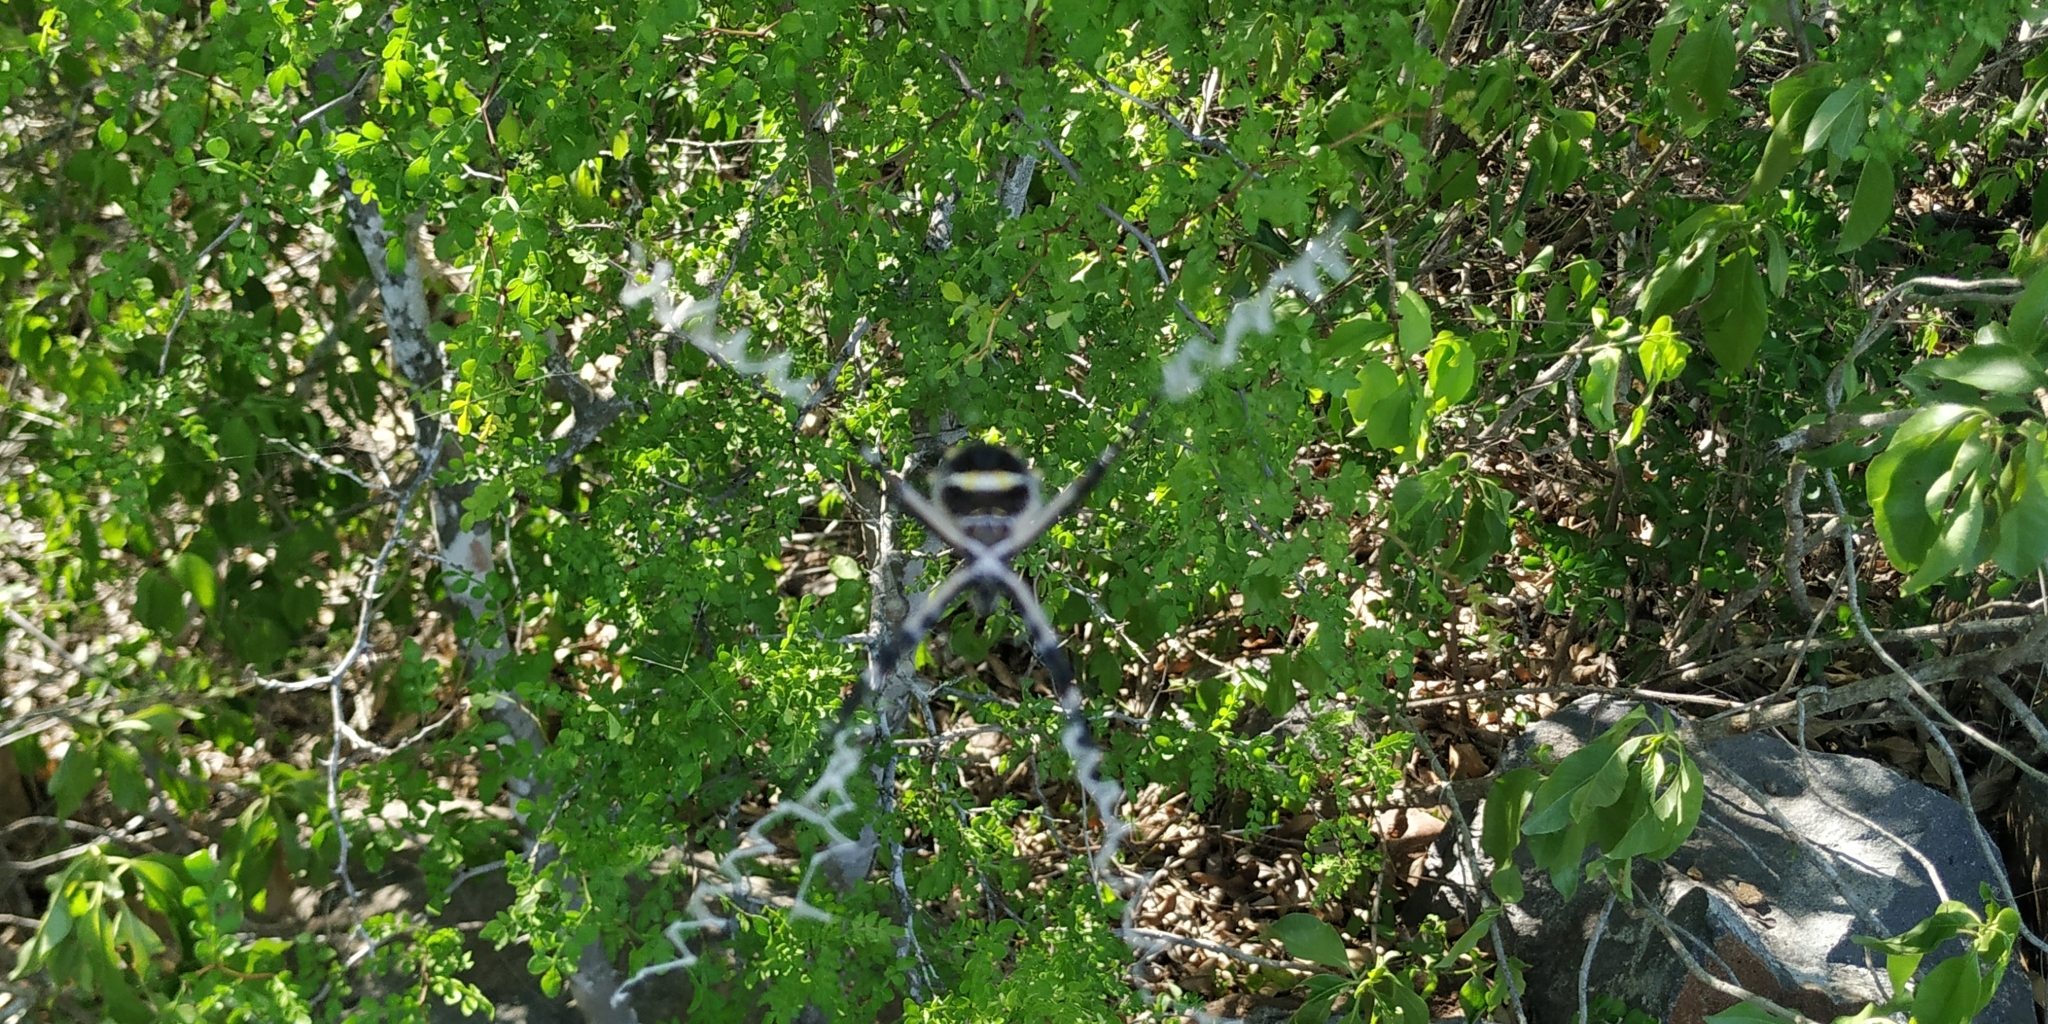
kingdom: Animalia
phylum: Arthropoda
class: Arachnida
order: Araneae
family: Araneidae
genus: Argiope
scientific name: Argiope argentata
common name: Orb weavers
